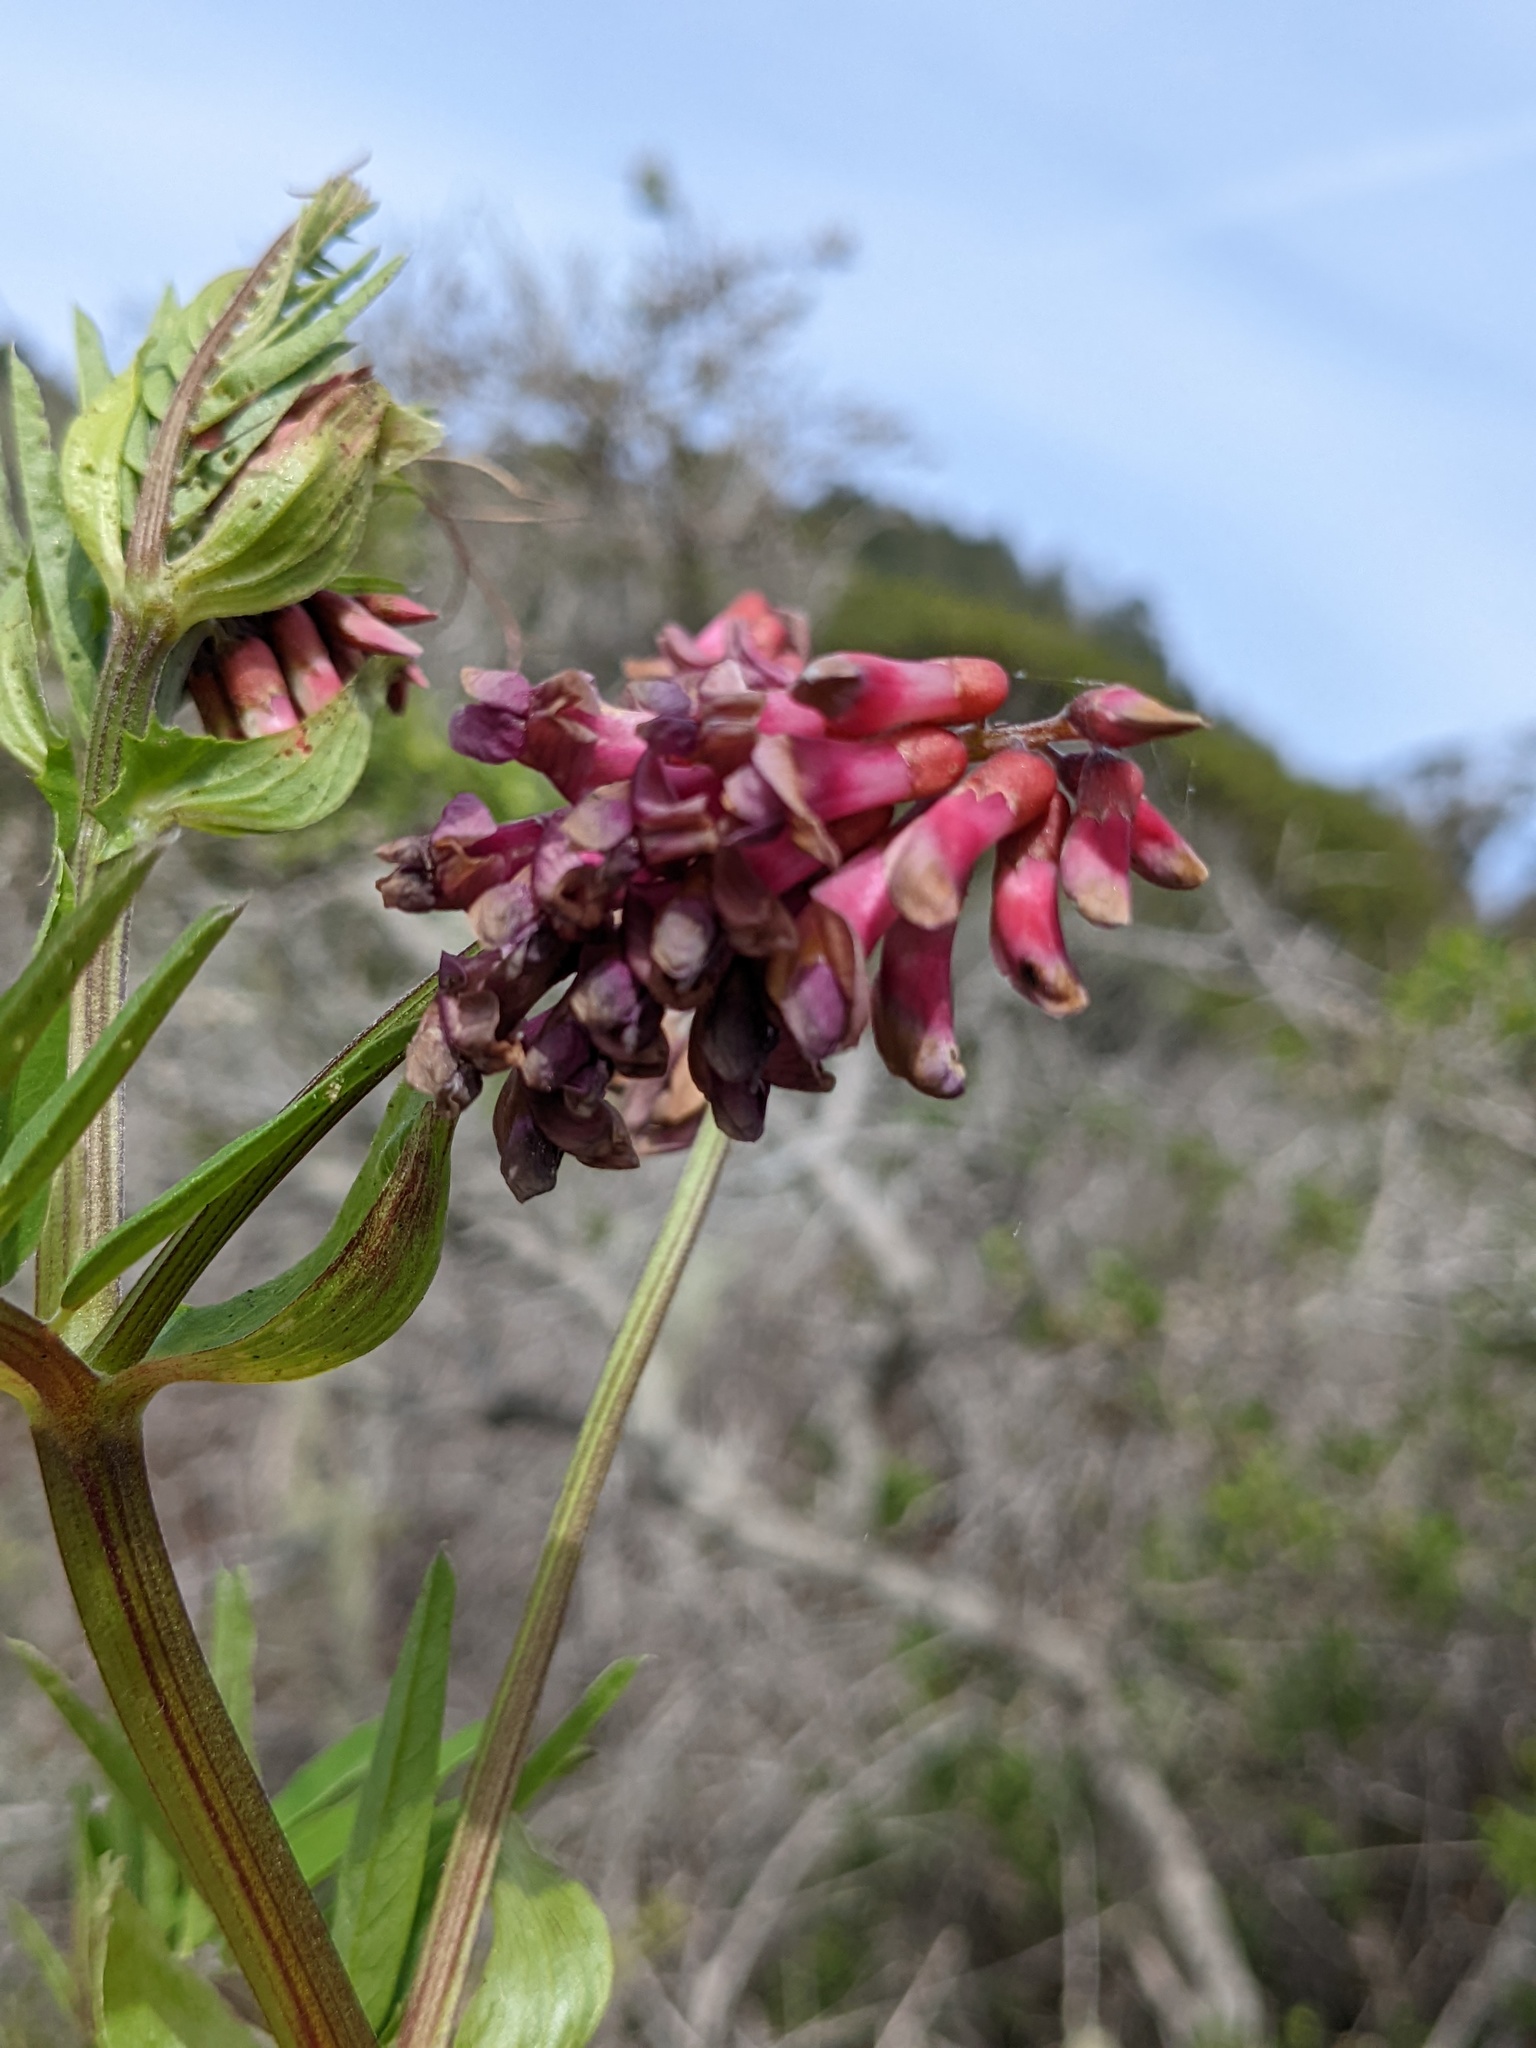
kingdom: Plantae
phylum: Tracheophyta
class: Magnoliopsida
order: Fabales
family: Fabaceae
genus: Vicia
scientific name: Vicia
